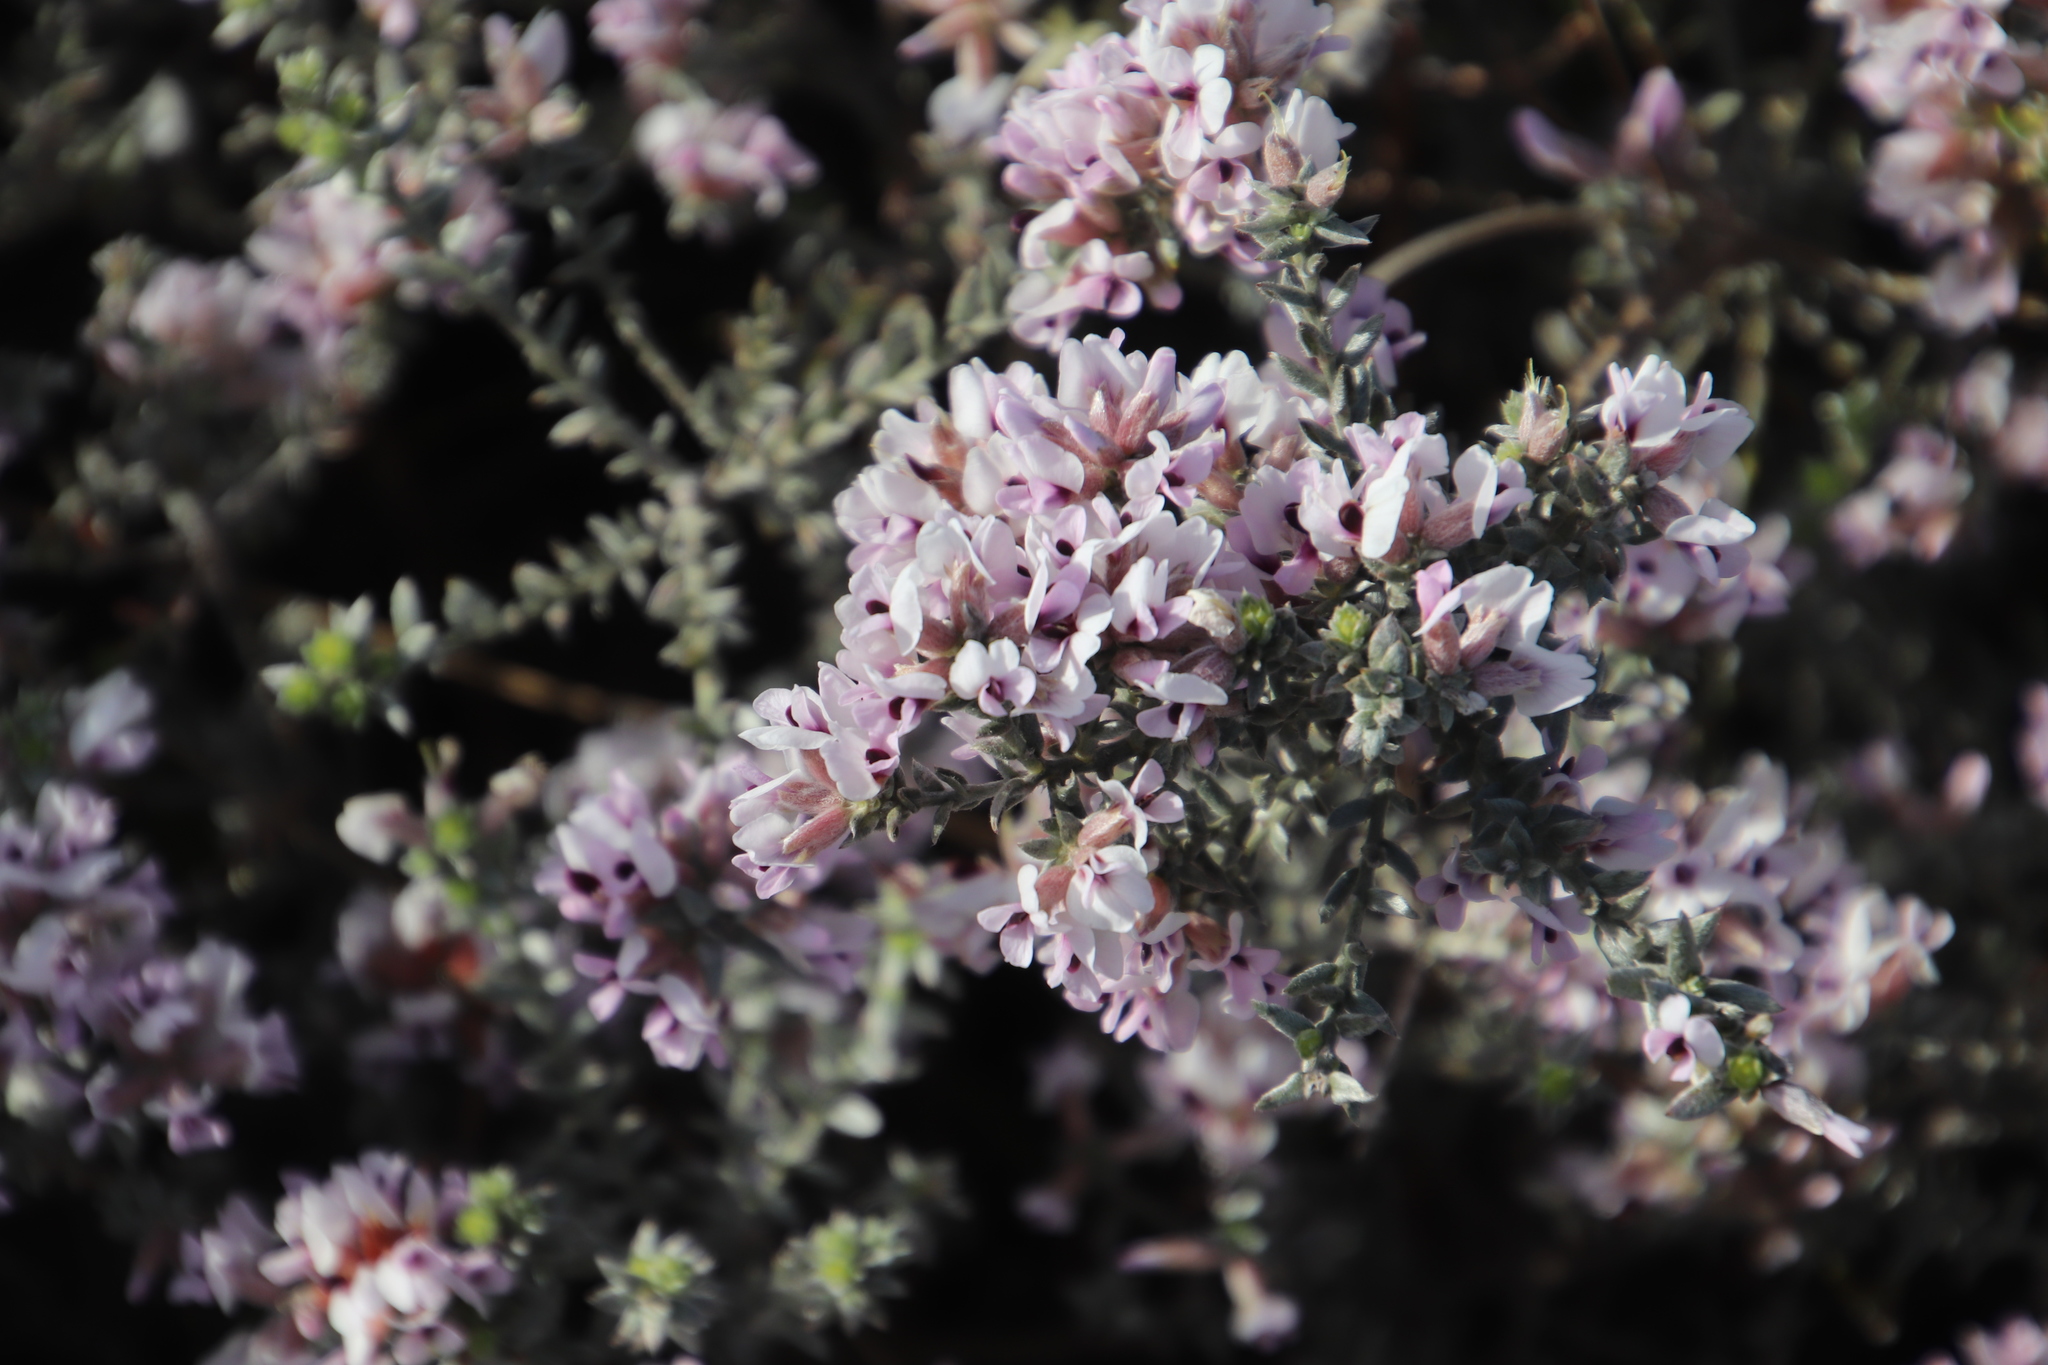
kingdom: Plantae
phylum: Tracheophyta
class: Magnoliopsida
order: Fabales
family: Fabaceae
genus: Amphithalea
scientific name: Amphithalea ericifolia
